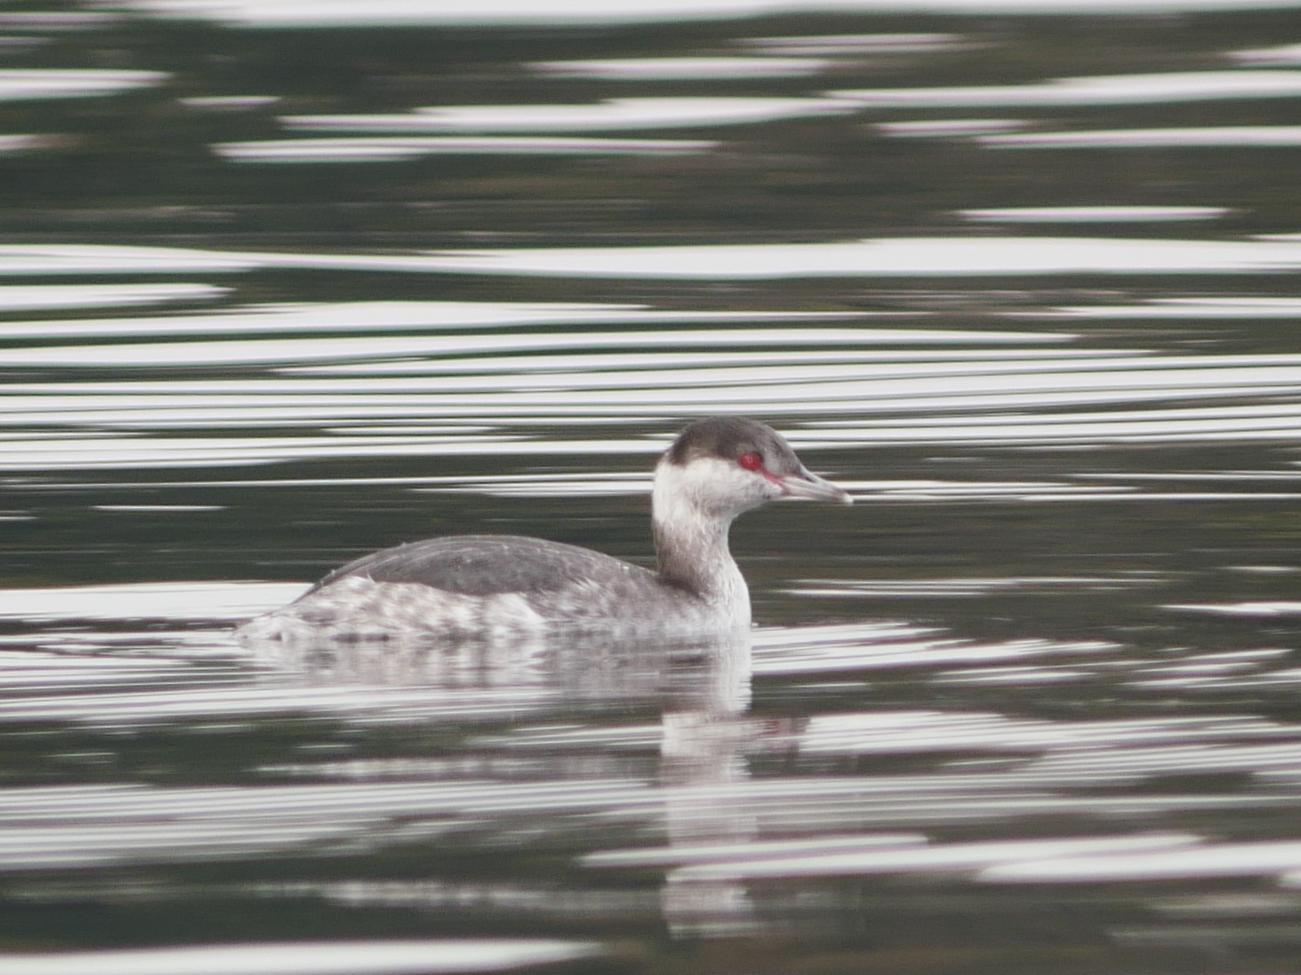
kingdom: Animalia
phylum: Chordata
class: Aves
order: Podicipediformes
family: Podicipedidae
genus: Podiceps
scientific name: Podiceps auritus
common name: Horned grebe
